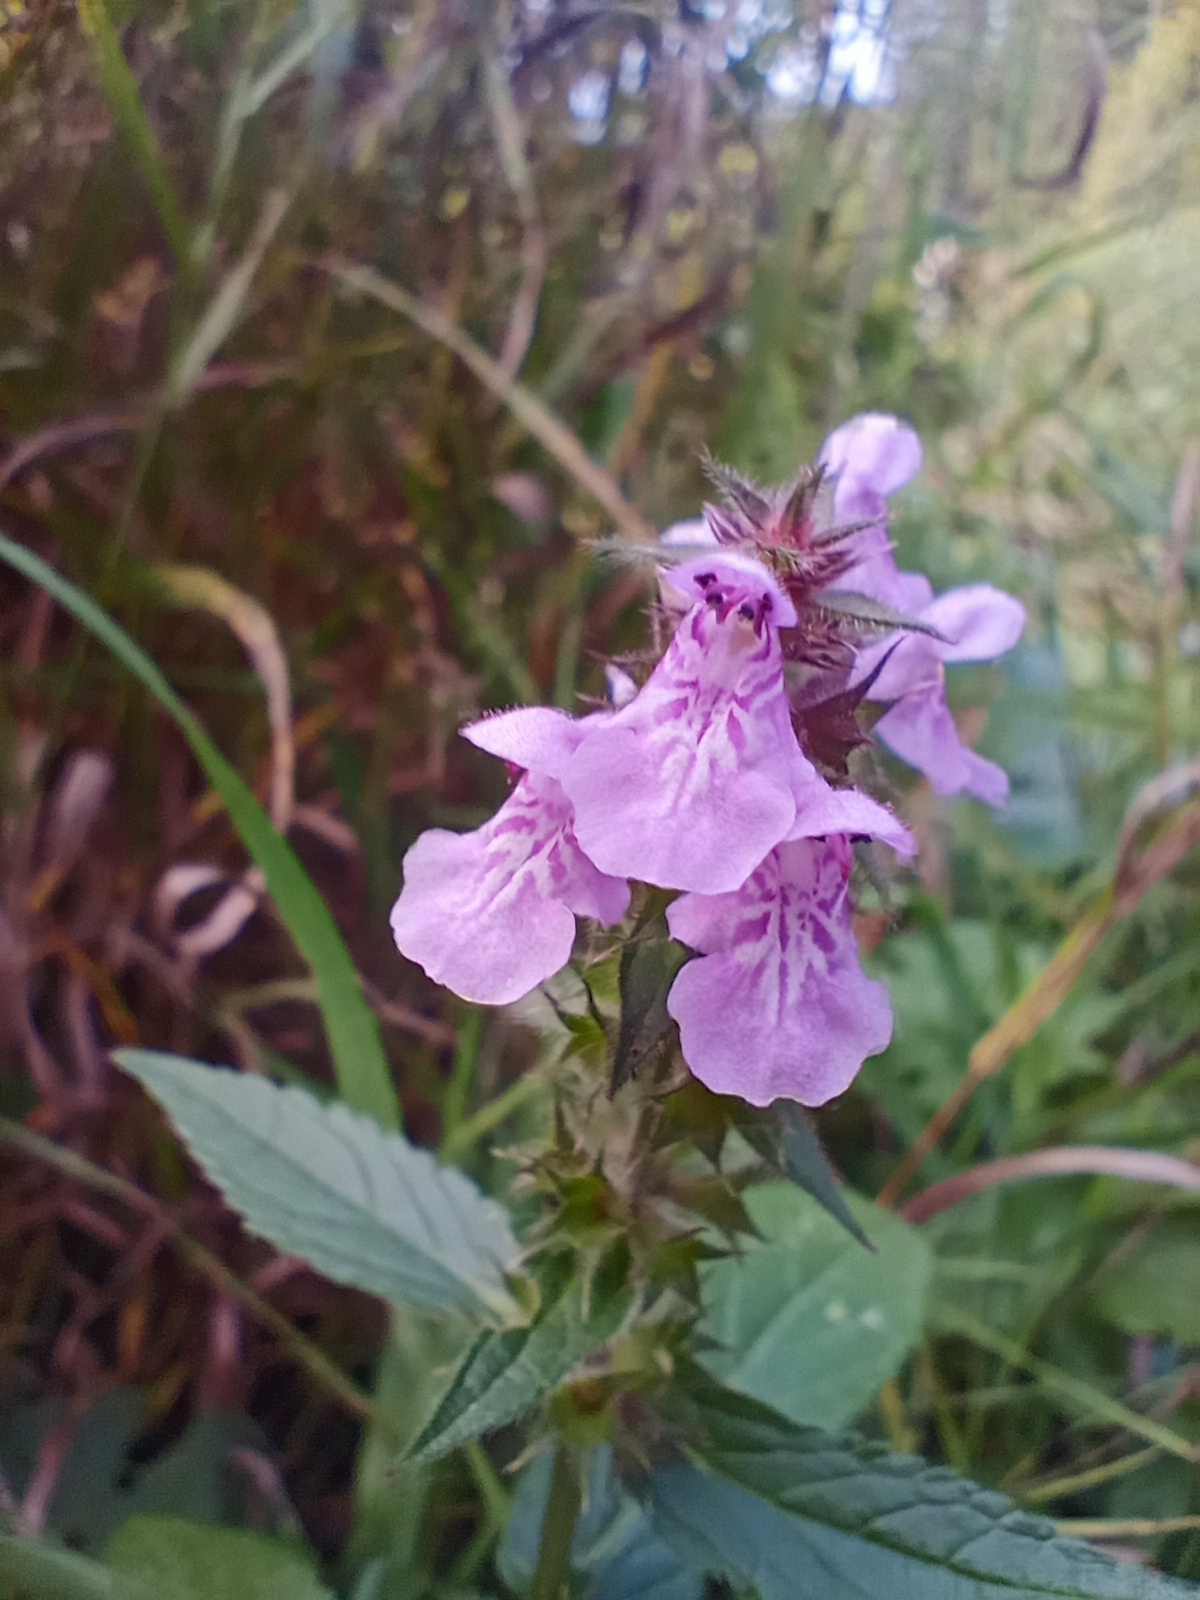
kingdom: Plantae
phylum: Tracheophyta
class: Magnoliopsida
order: Lamiales
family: Lamiaceae
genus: Stachys
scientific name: Stachys palustris
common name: Marsh woundwort
